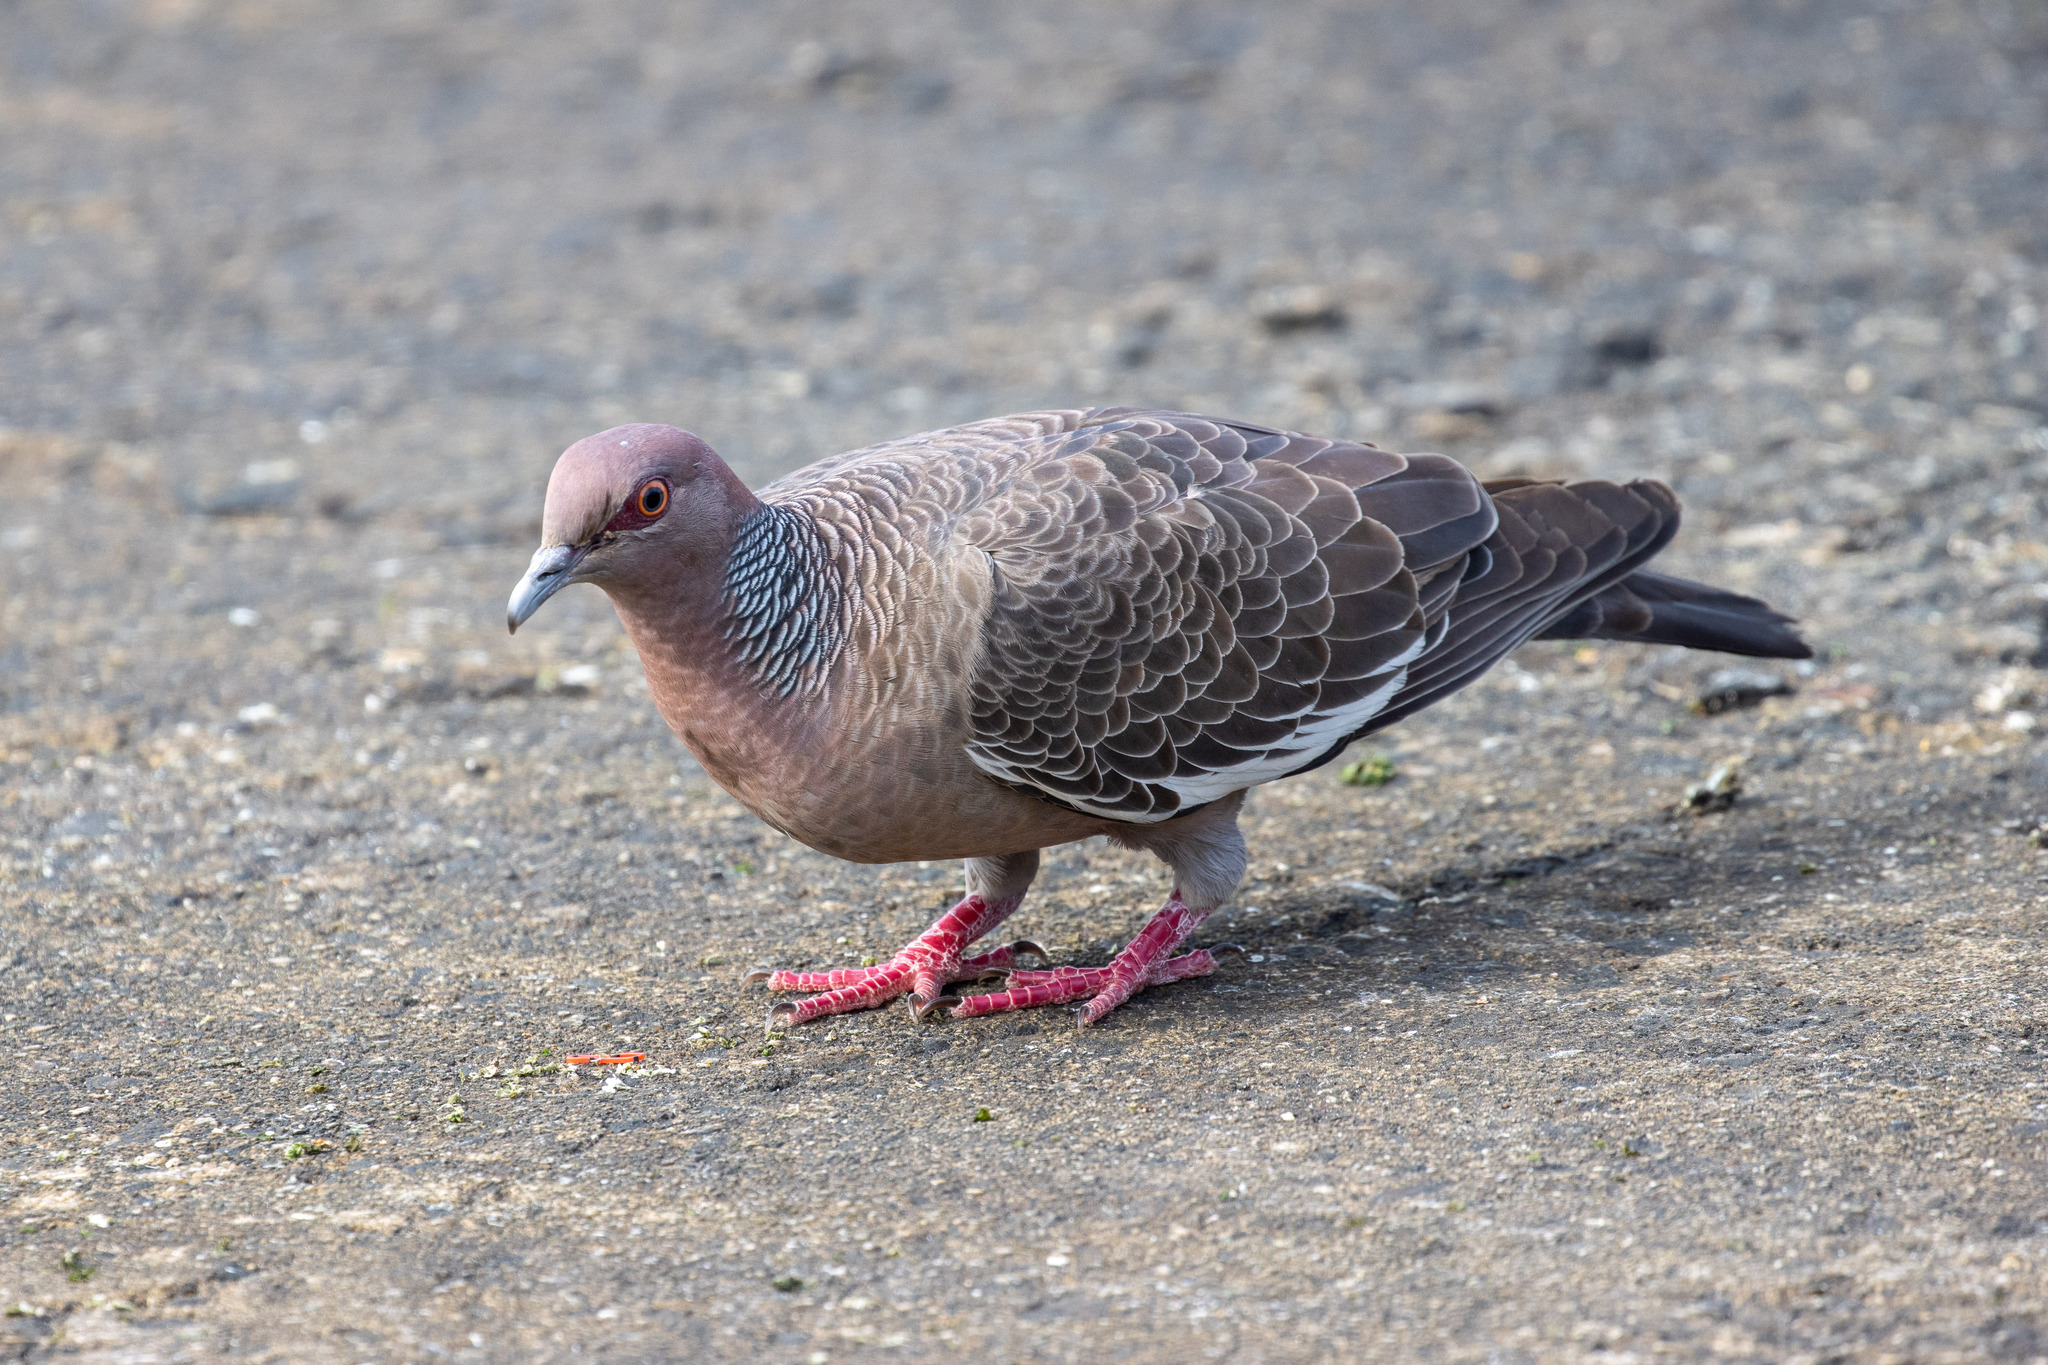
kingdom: Animalia
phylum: Chordata
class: Aves
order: Columbiformes
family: Columbidae
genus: Patagioenas
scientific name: Patagioenas picazuro
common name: Picazuro pigeon
